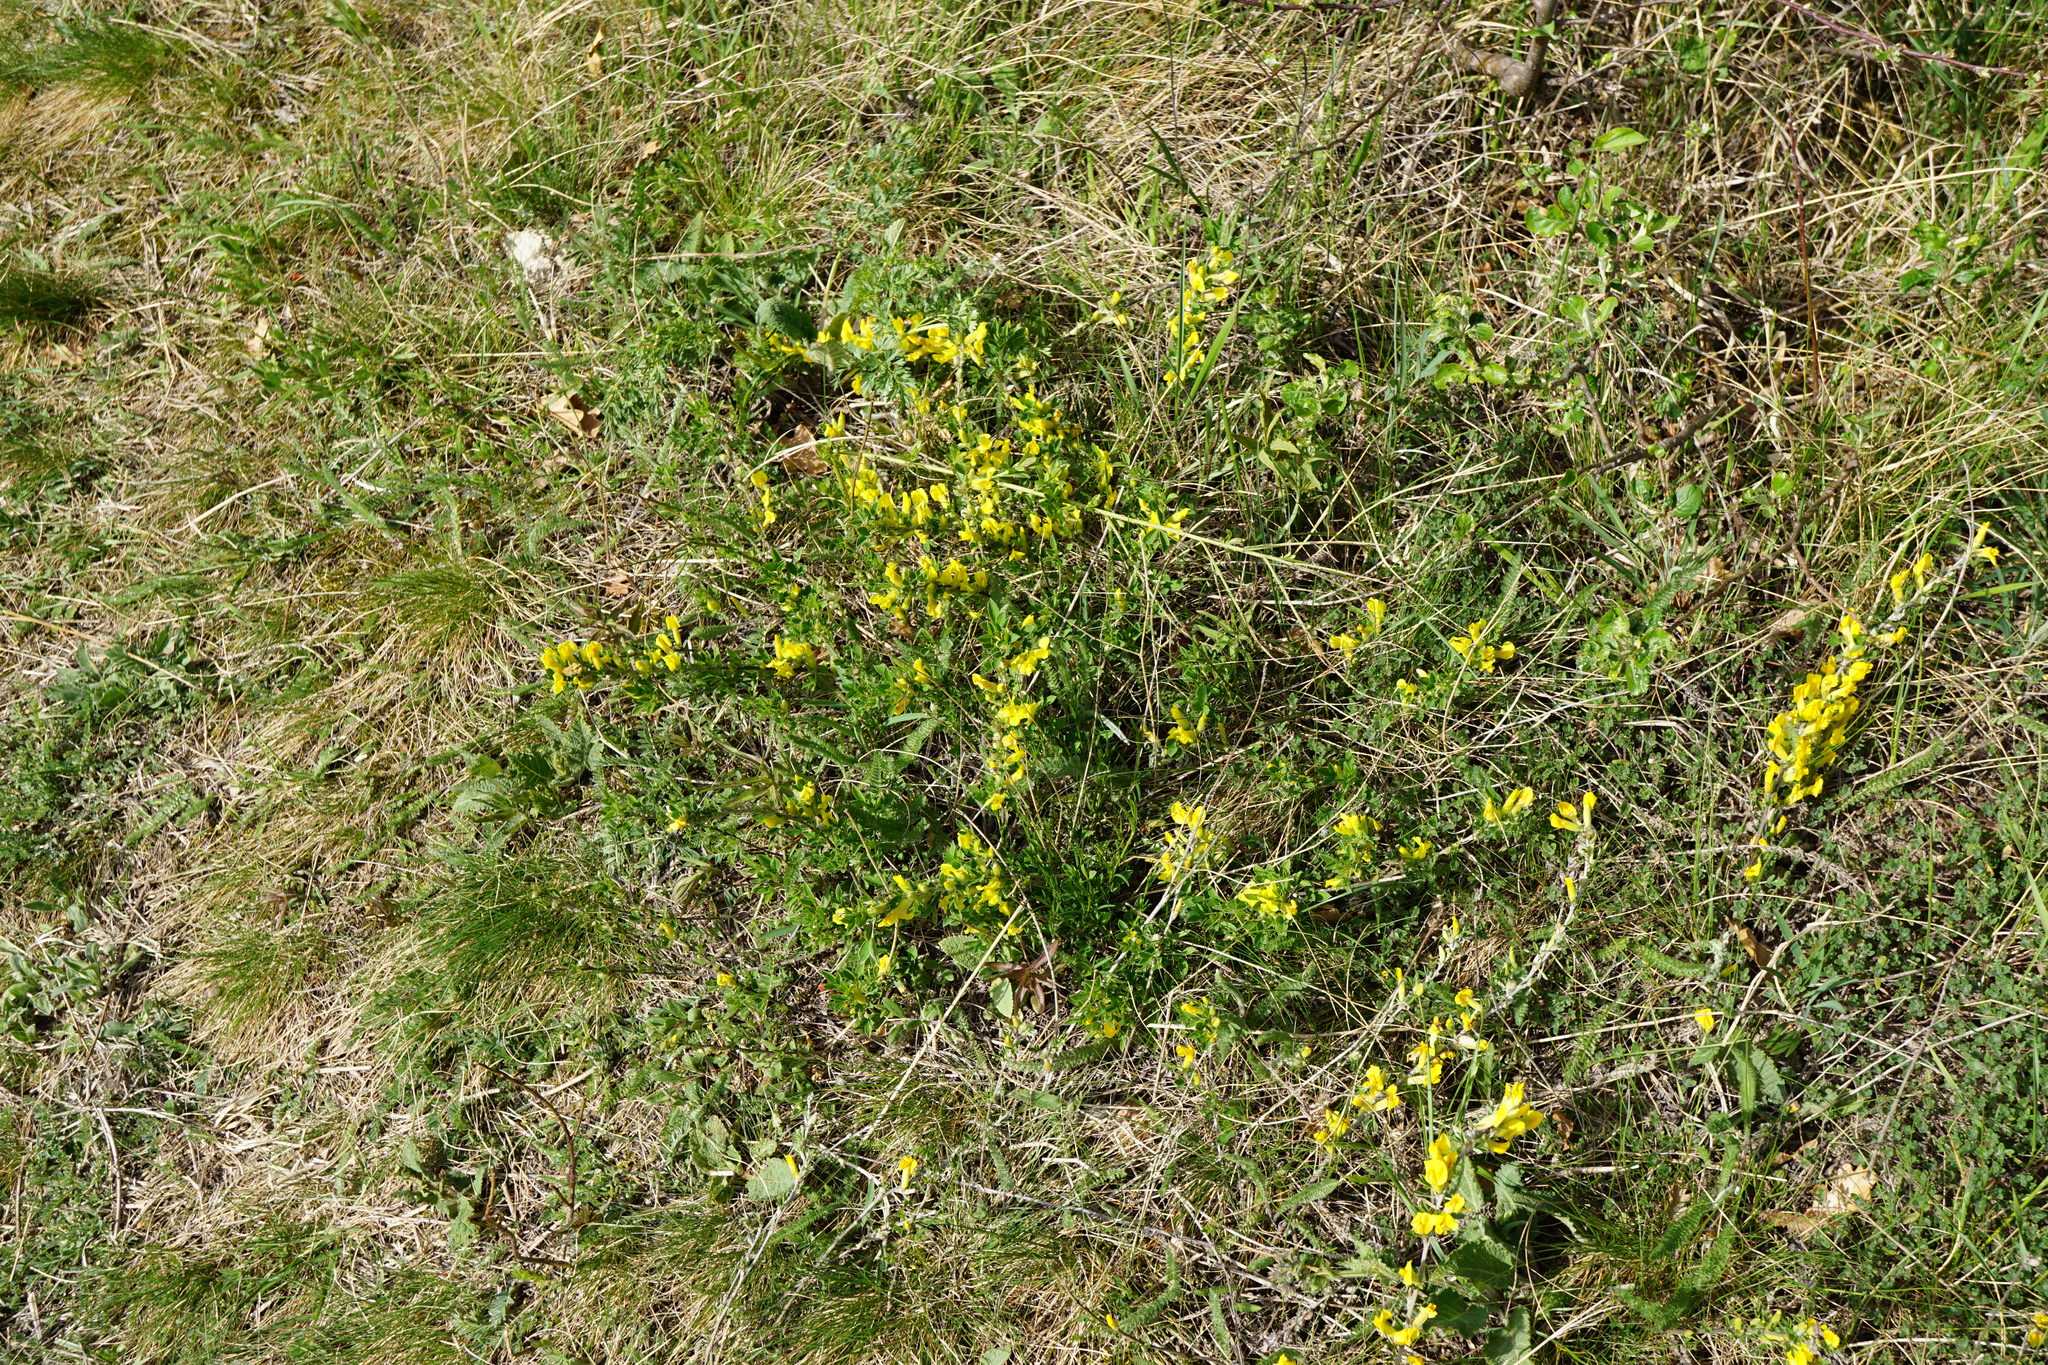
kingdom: Plantae
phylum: Tracheophyta
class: Magnoliopsida
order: Fabales
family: Fabaceae
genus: Chamaecytisus
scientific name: Chamaecytisus ratisbonensis
